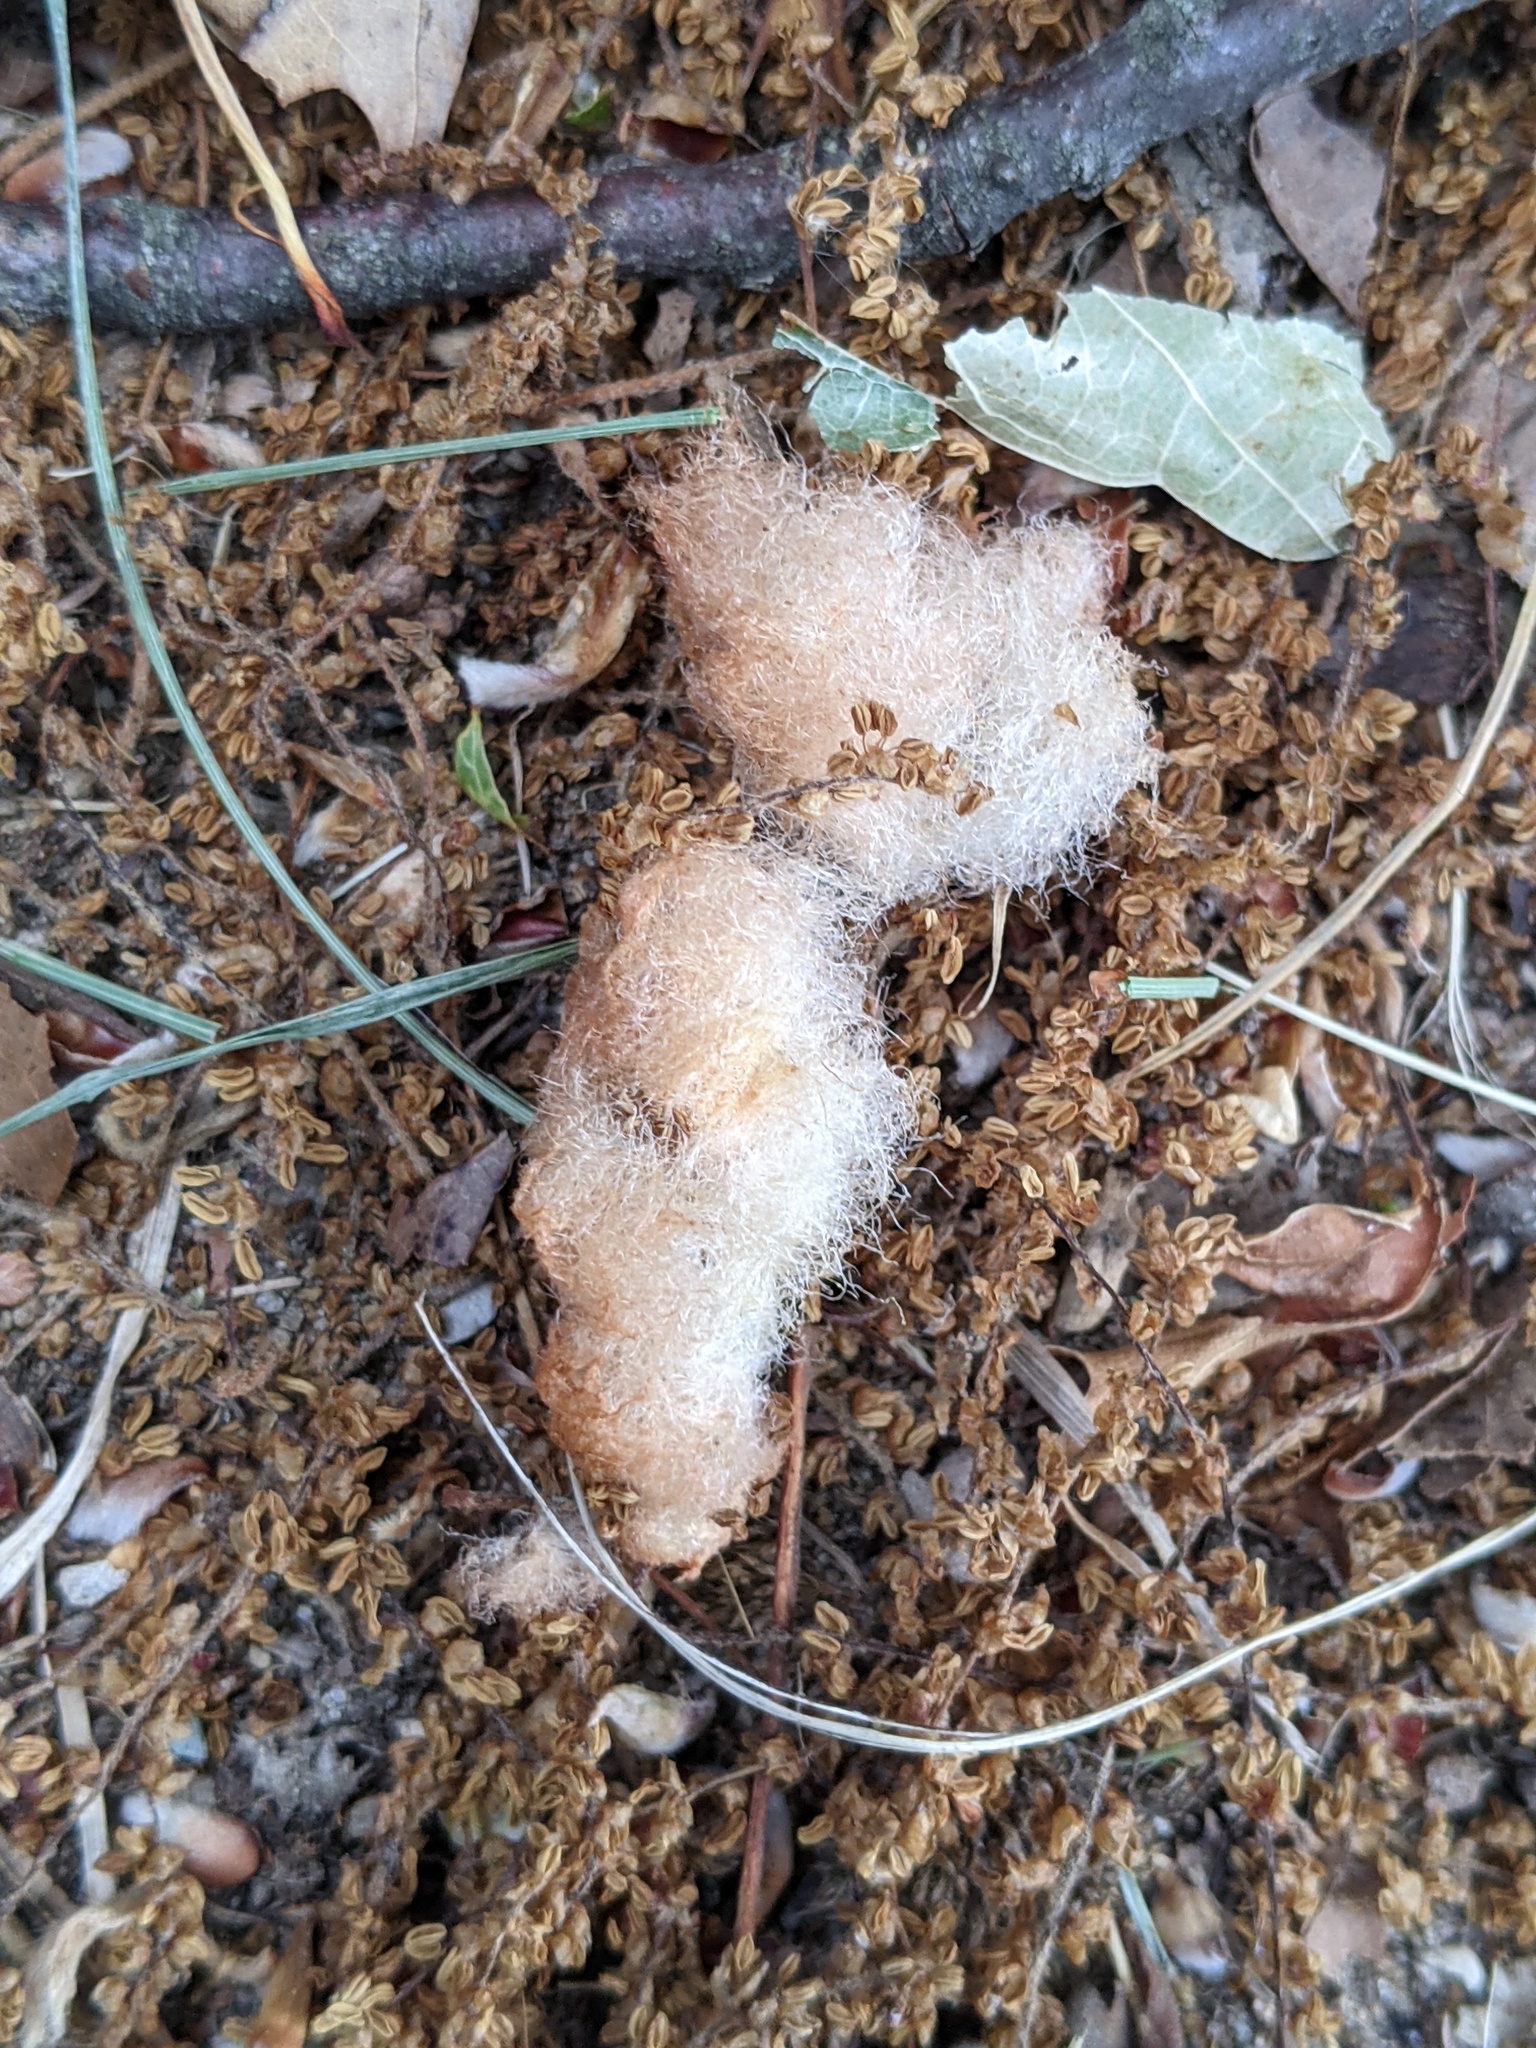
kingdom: Animalia
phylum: Arthropoda
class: Insecta
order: Hymenoptera
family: Cynipidae
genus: Callirhytis
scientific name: Callirhytis
